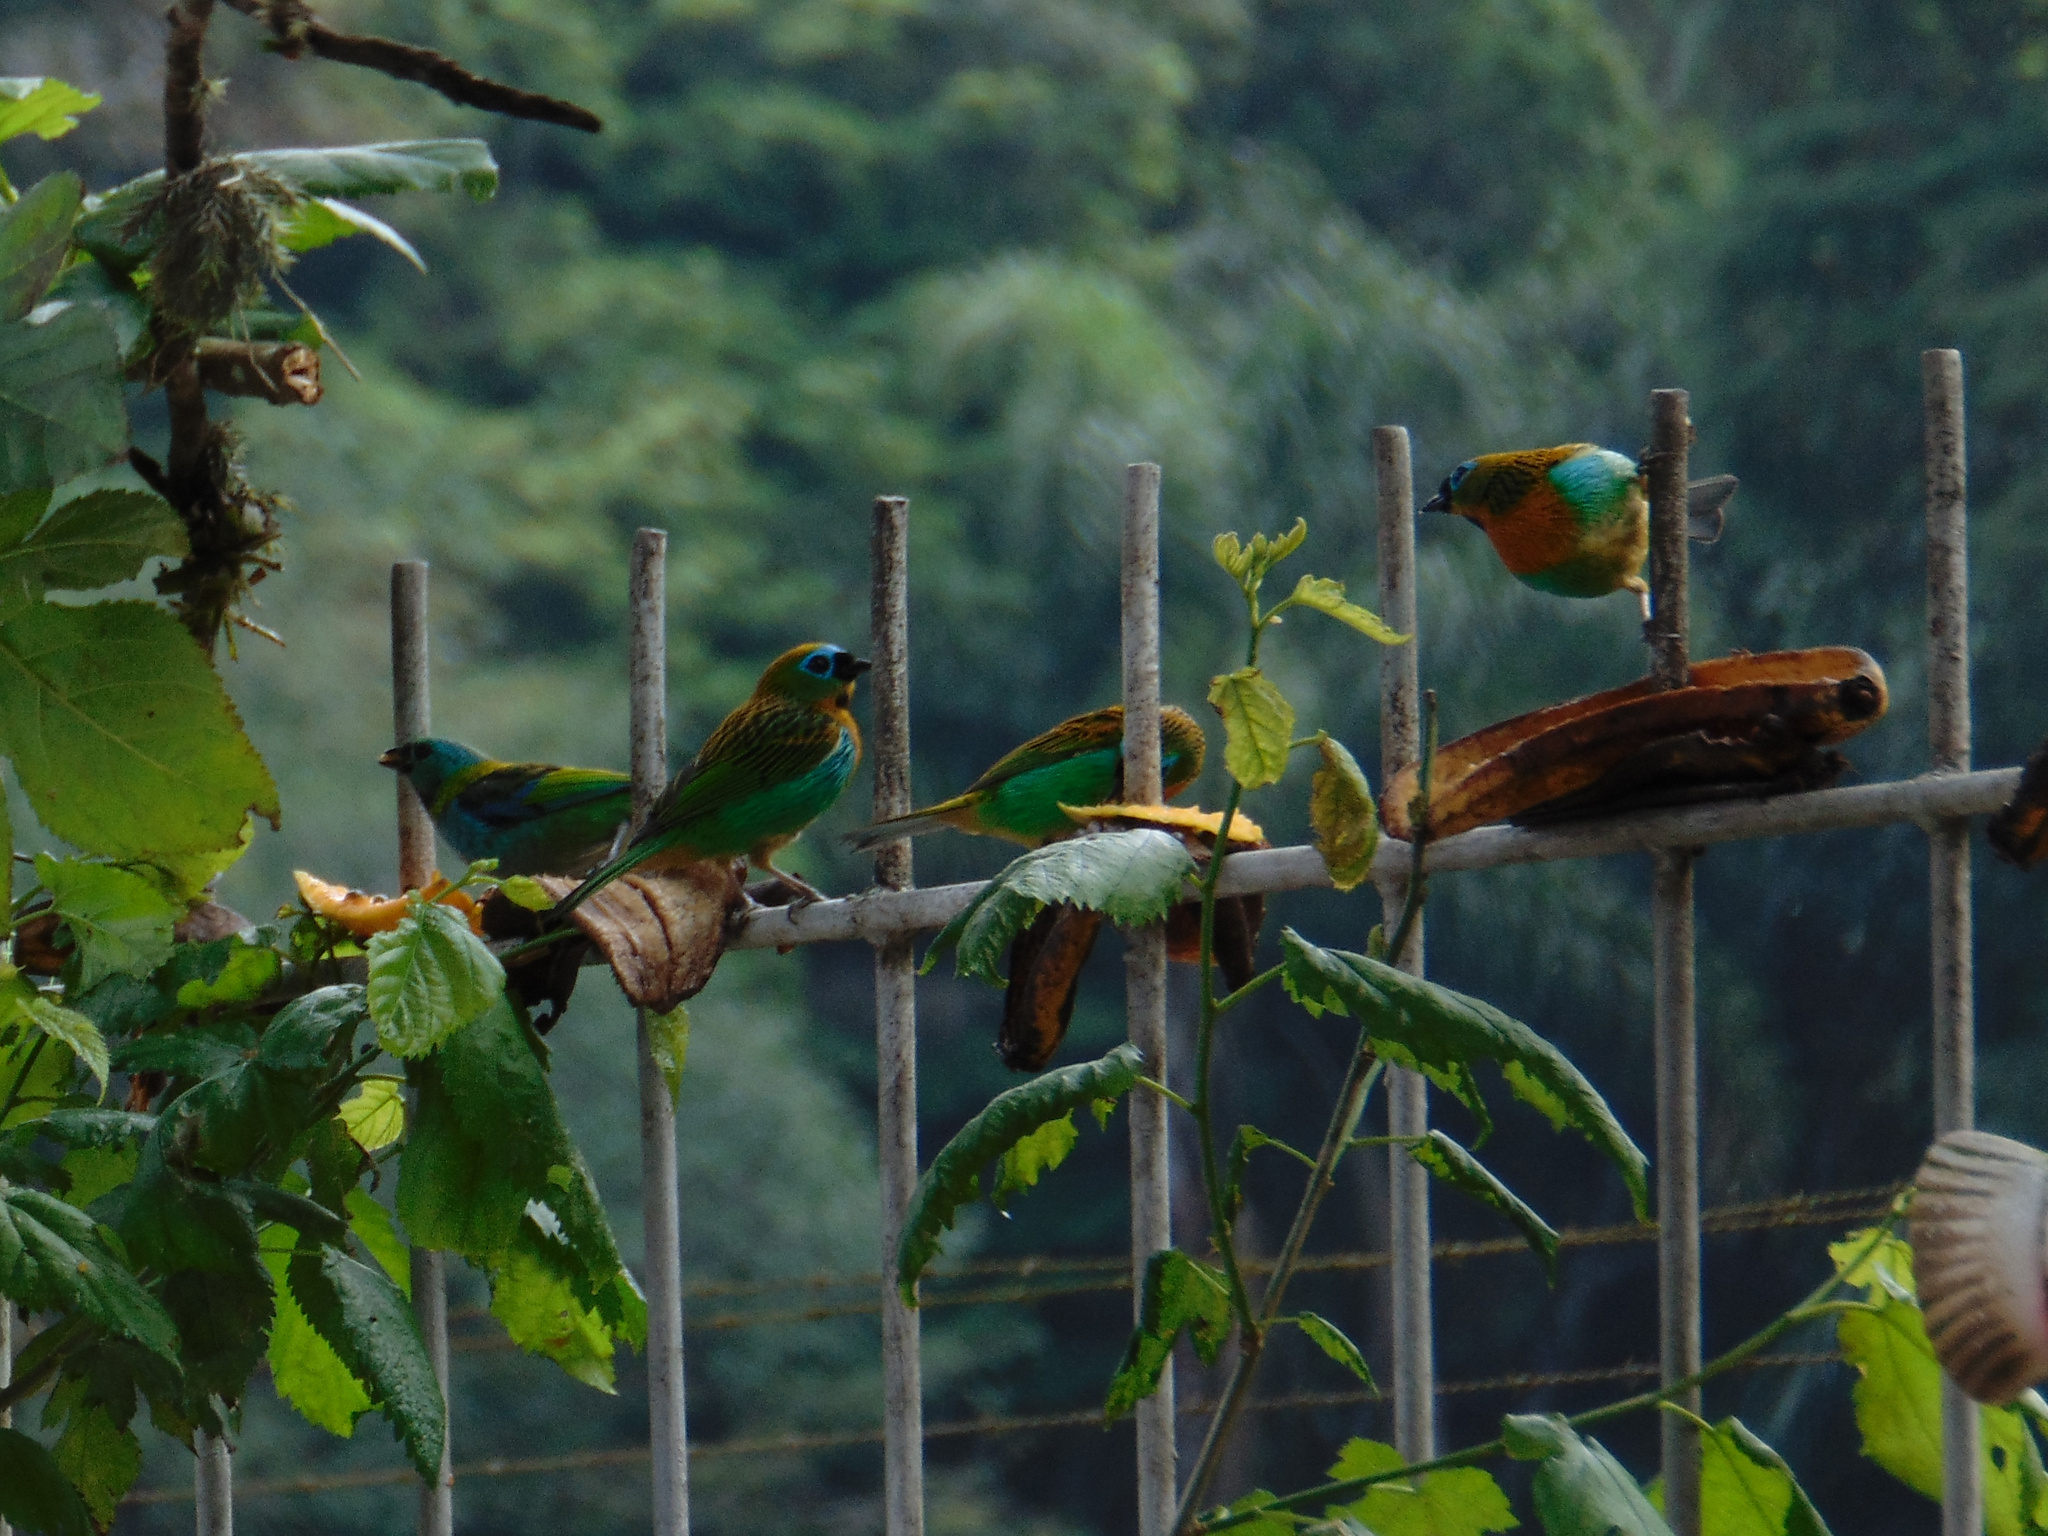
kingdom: Animalia
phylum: Chordata
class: Aves
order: Passeriformes
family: Thraupidae
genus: Tangara
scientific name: Tangara desmaresti
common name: Brassy-breasted tanager
